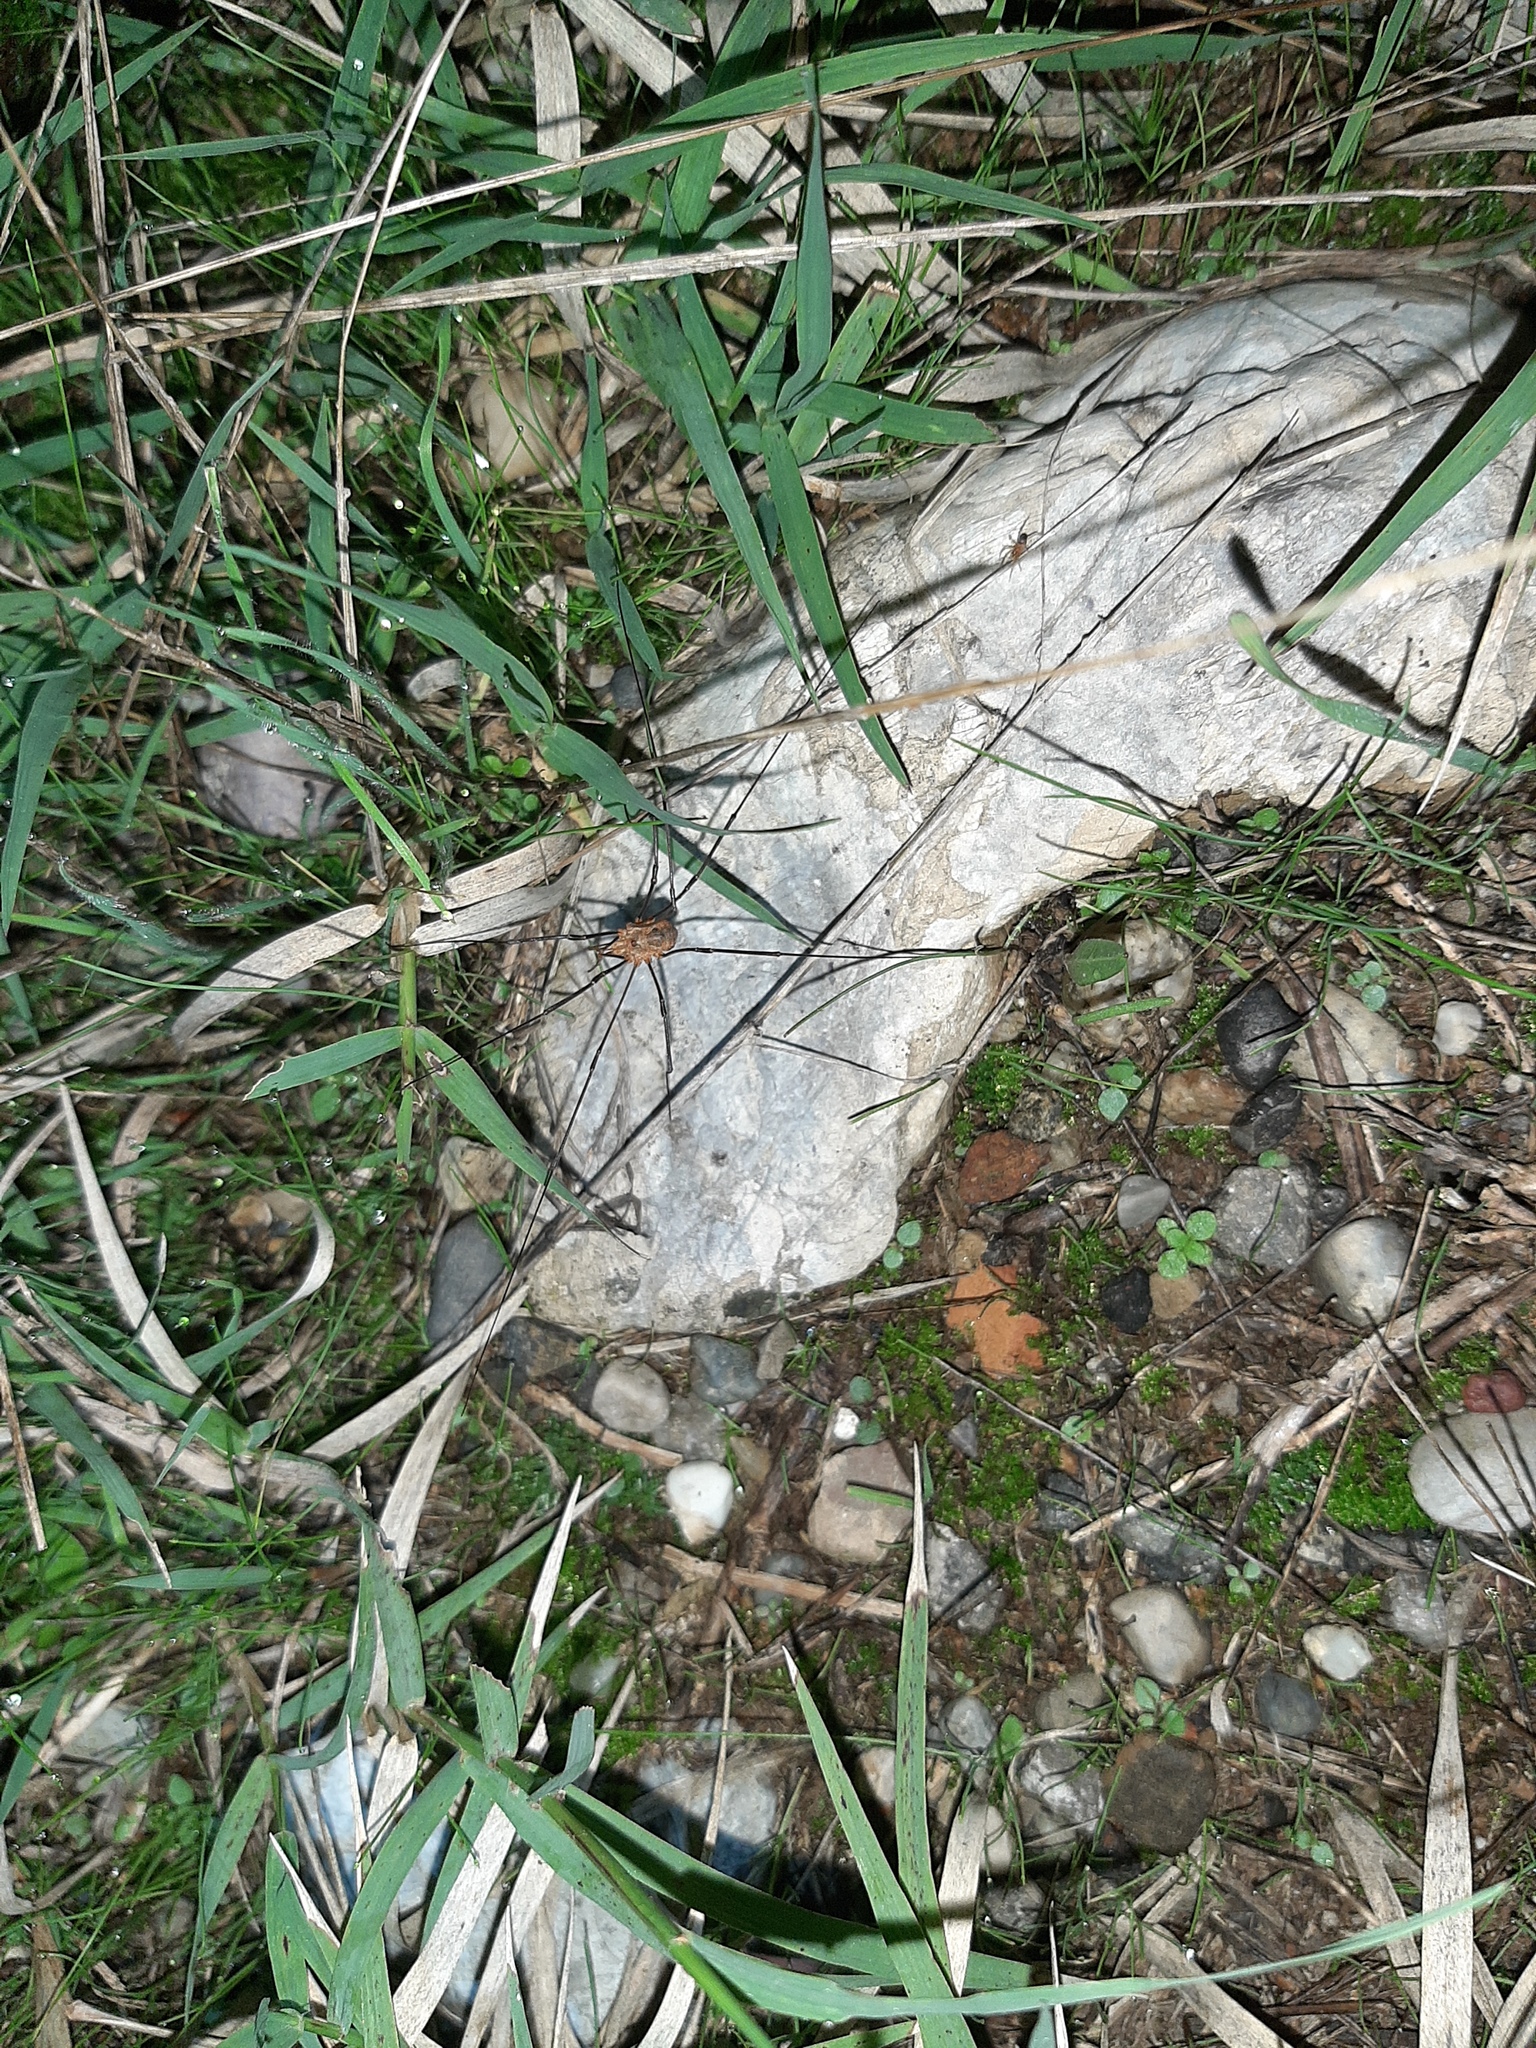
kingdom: Animalia
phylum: Arthropoda
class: Arachnida
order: Opiliones
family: Phalangiidae
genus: Phalangium
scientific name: Phalangium opilio
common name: Daddy longleg
